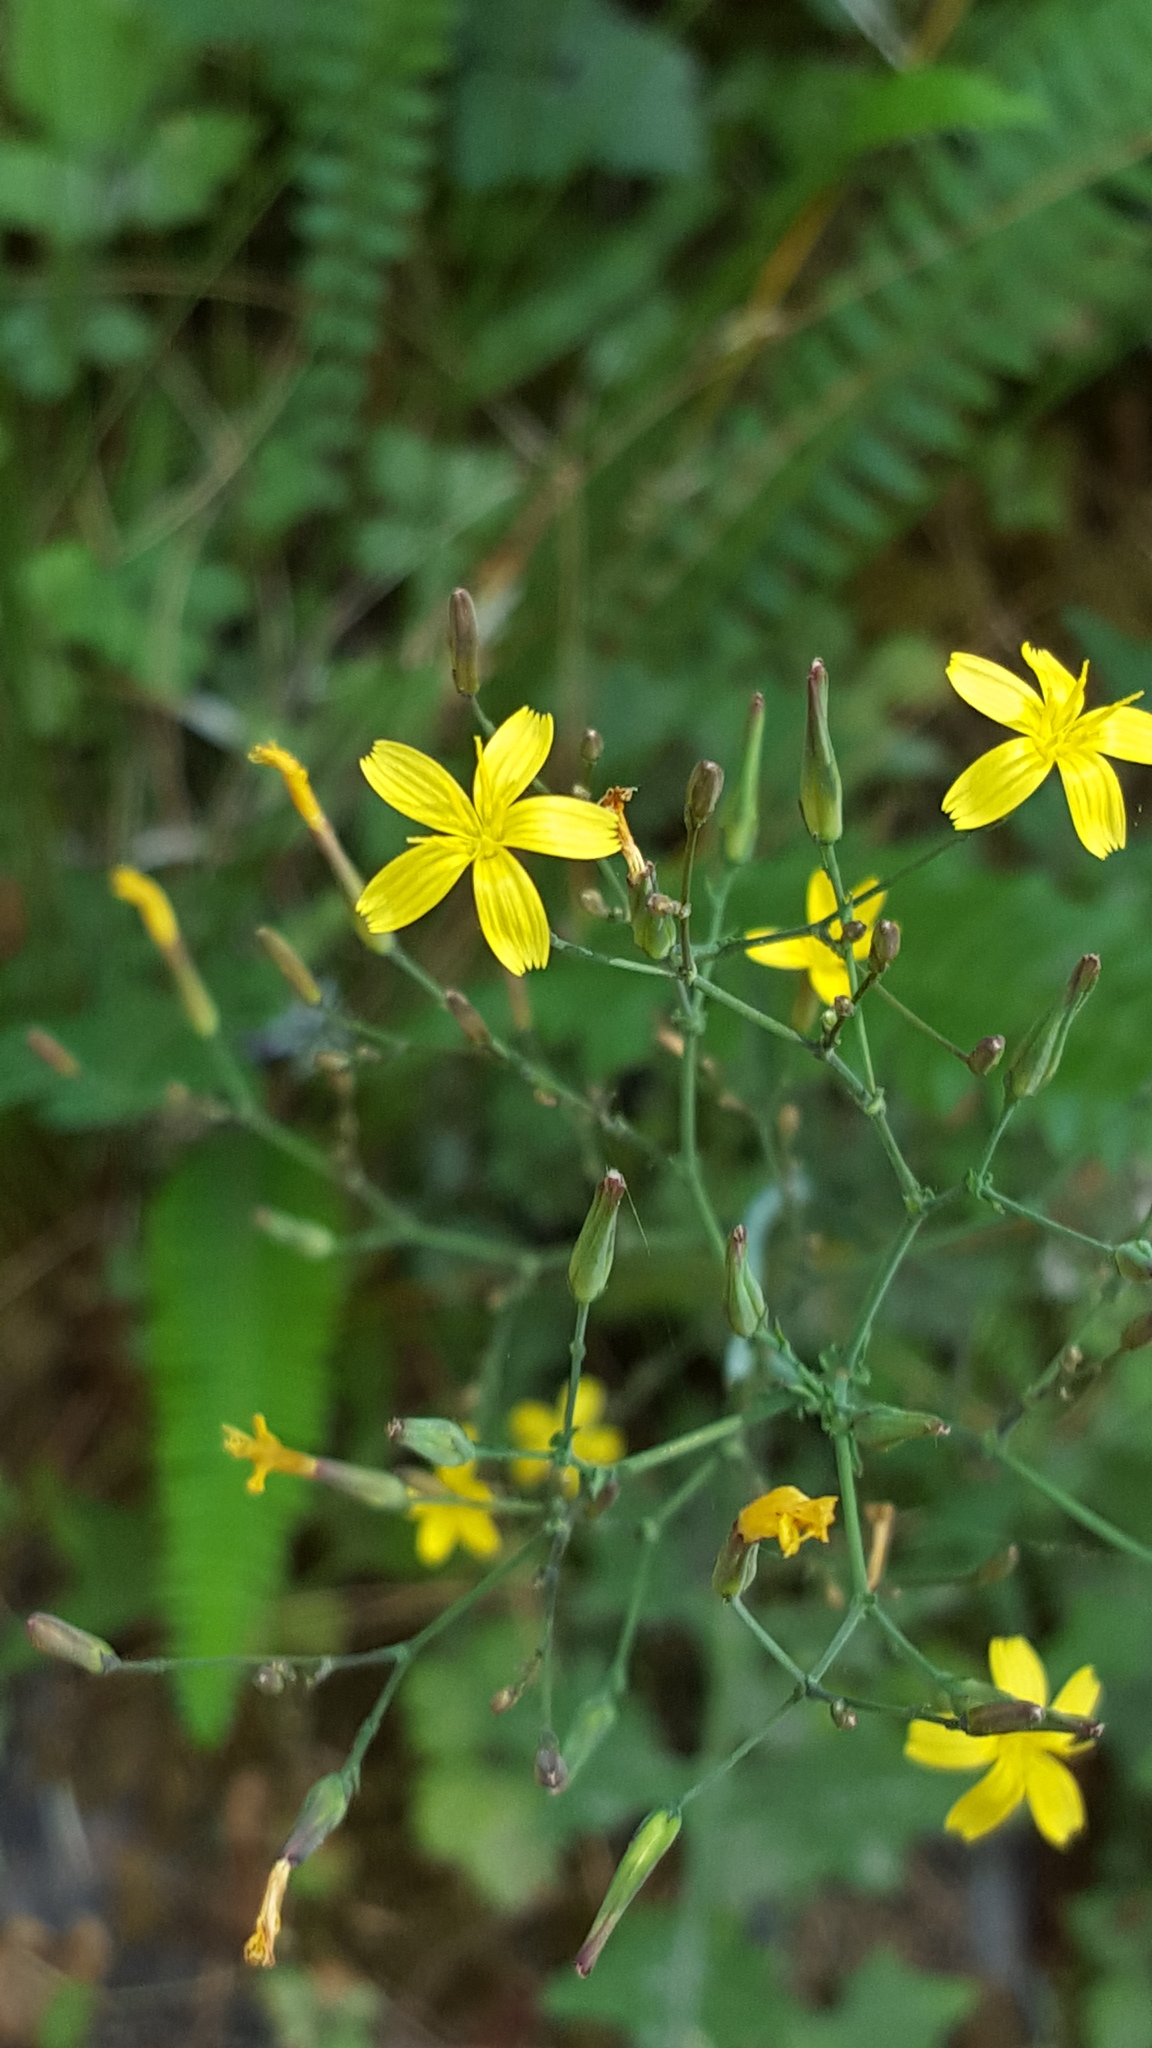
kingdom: Plantae
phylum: Tracheophyta
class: Magnoliopsida
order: Asterales
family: Asteraceae
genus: Mycelis
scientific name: Mycelis muralis
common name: Wall lettuce
